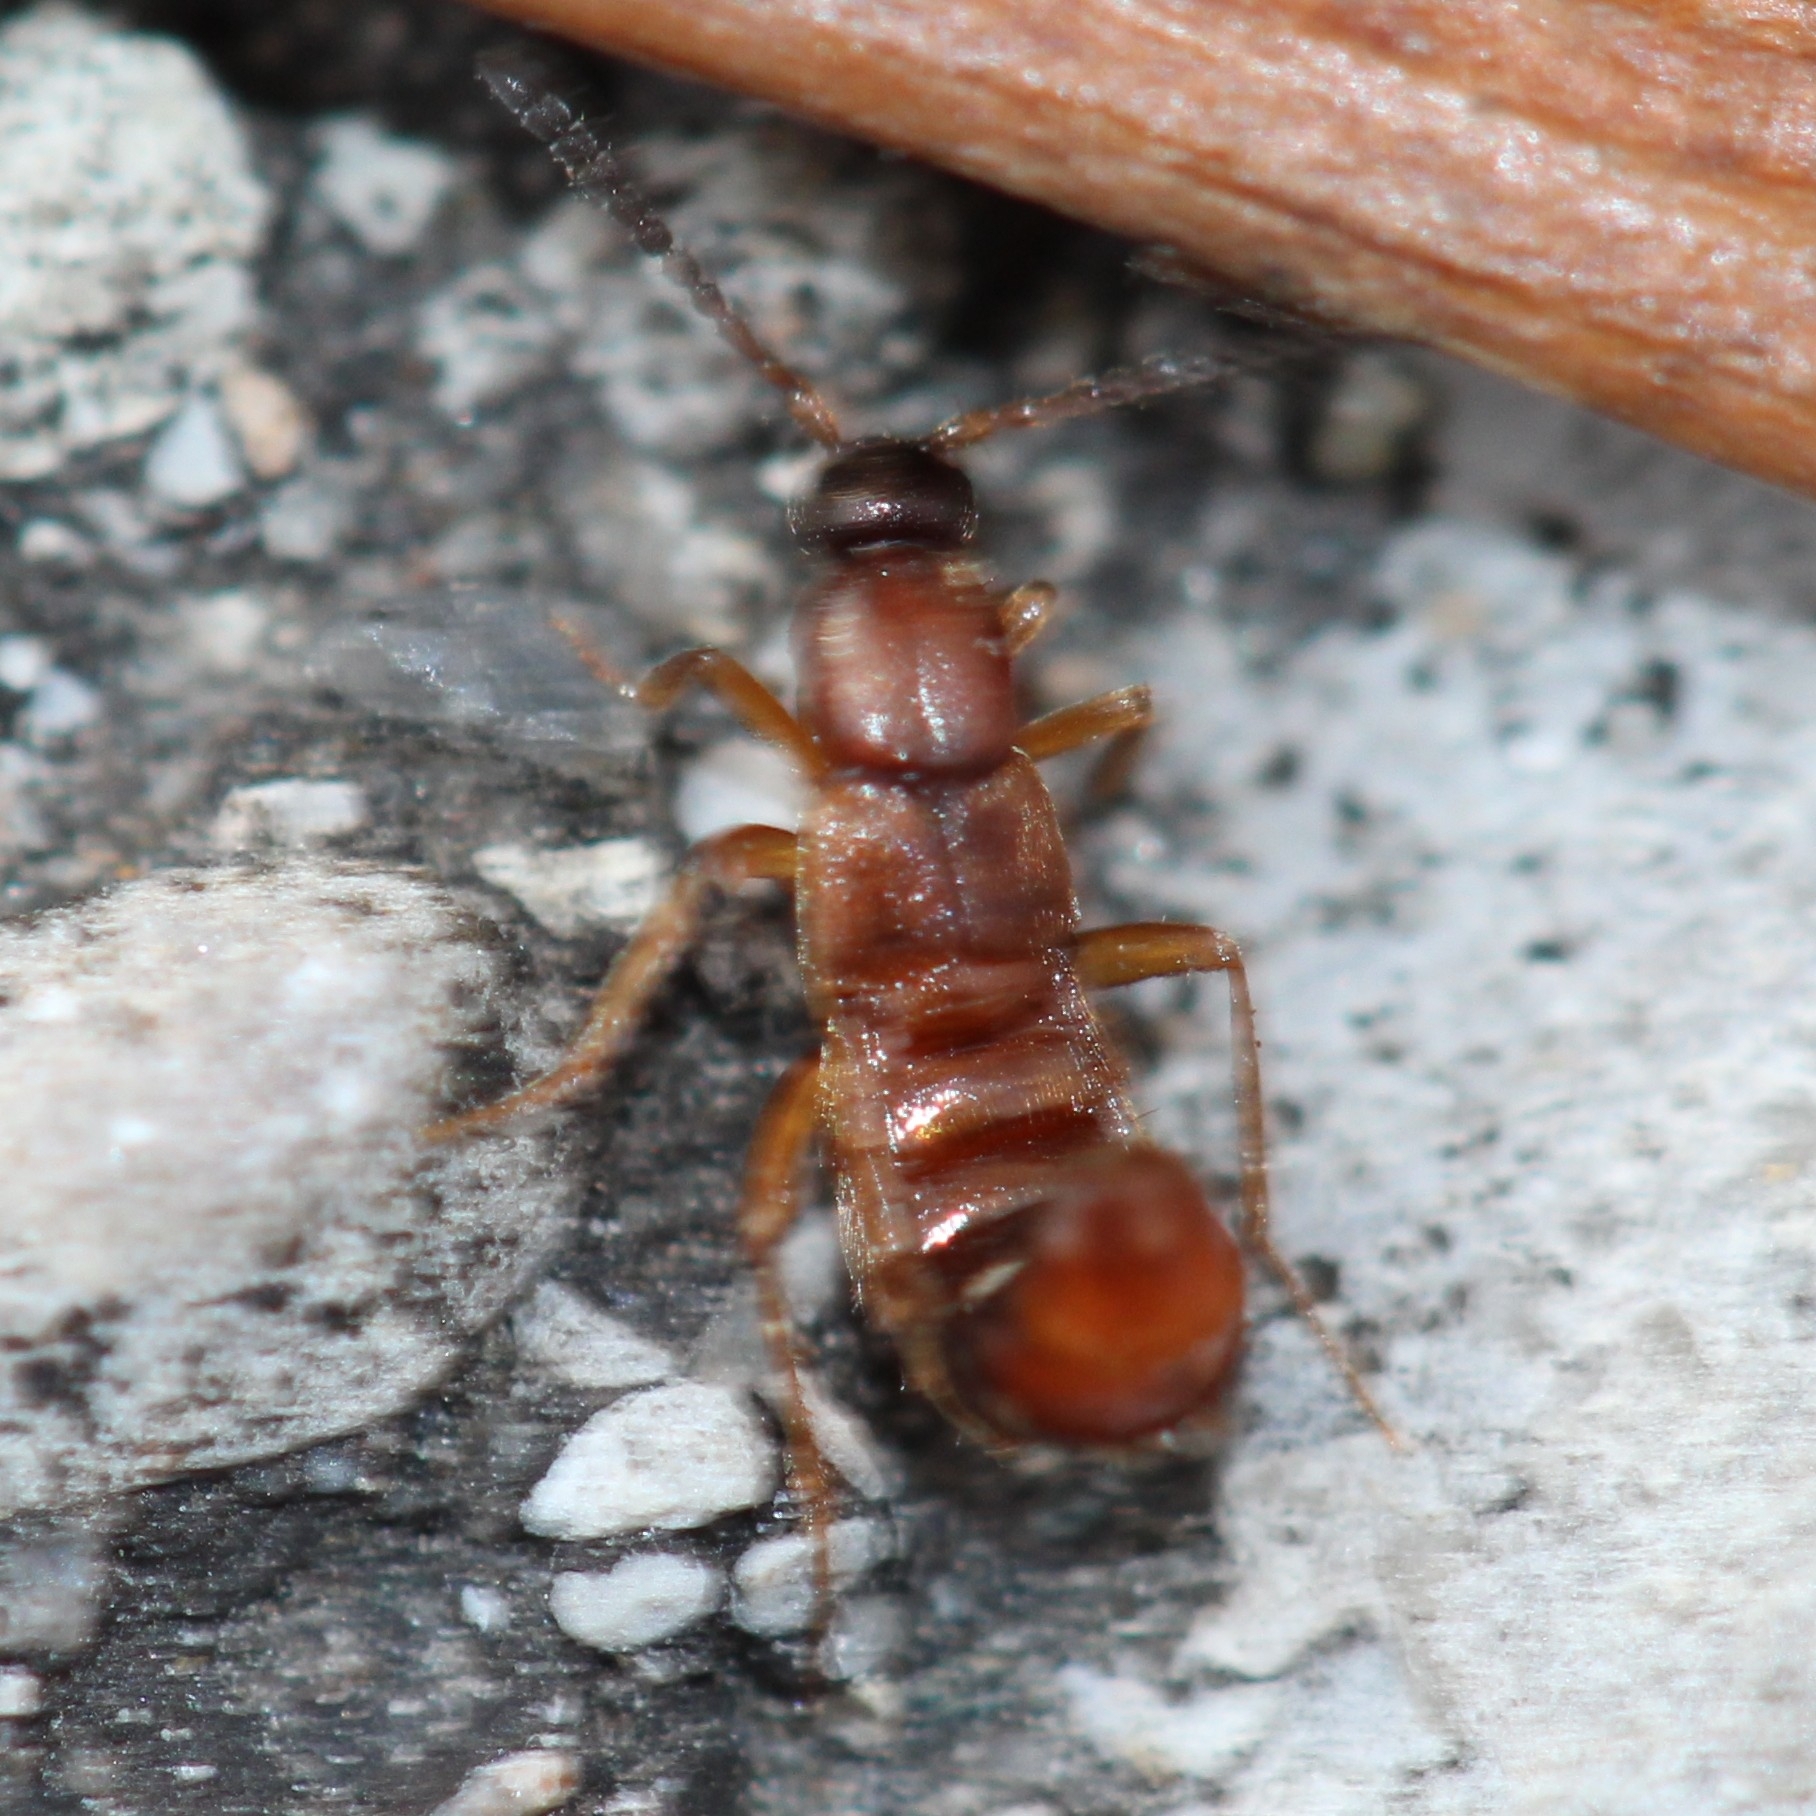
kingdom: Animalia
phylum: Arthropoda
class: Insecta
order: Coleoptera
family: Staphylinidae
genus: Drusilla
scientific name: Drusilla canaliculata
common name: Rove beetle
